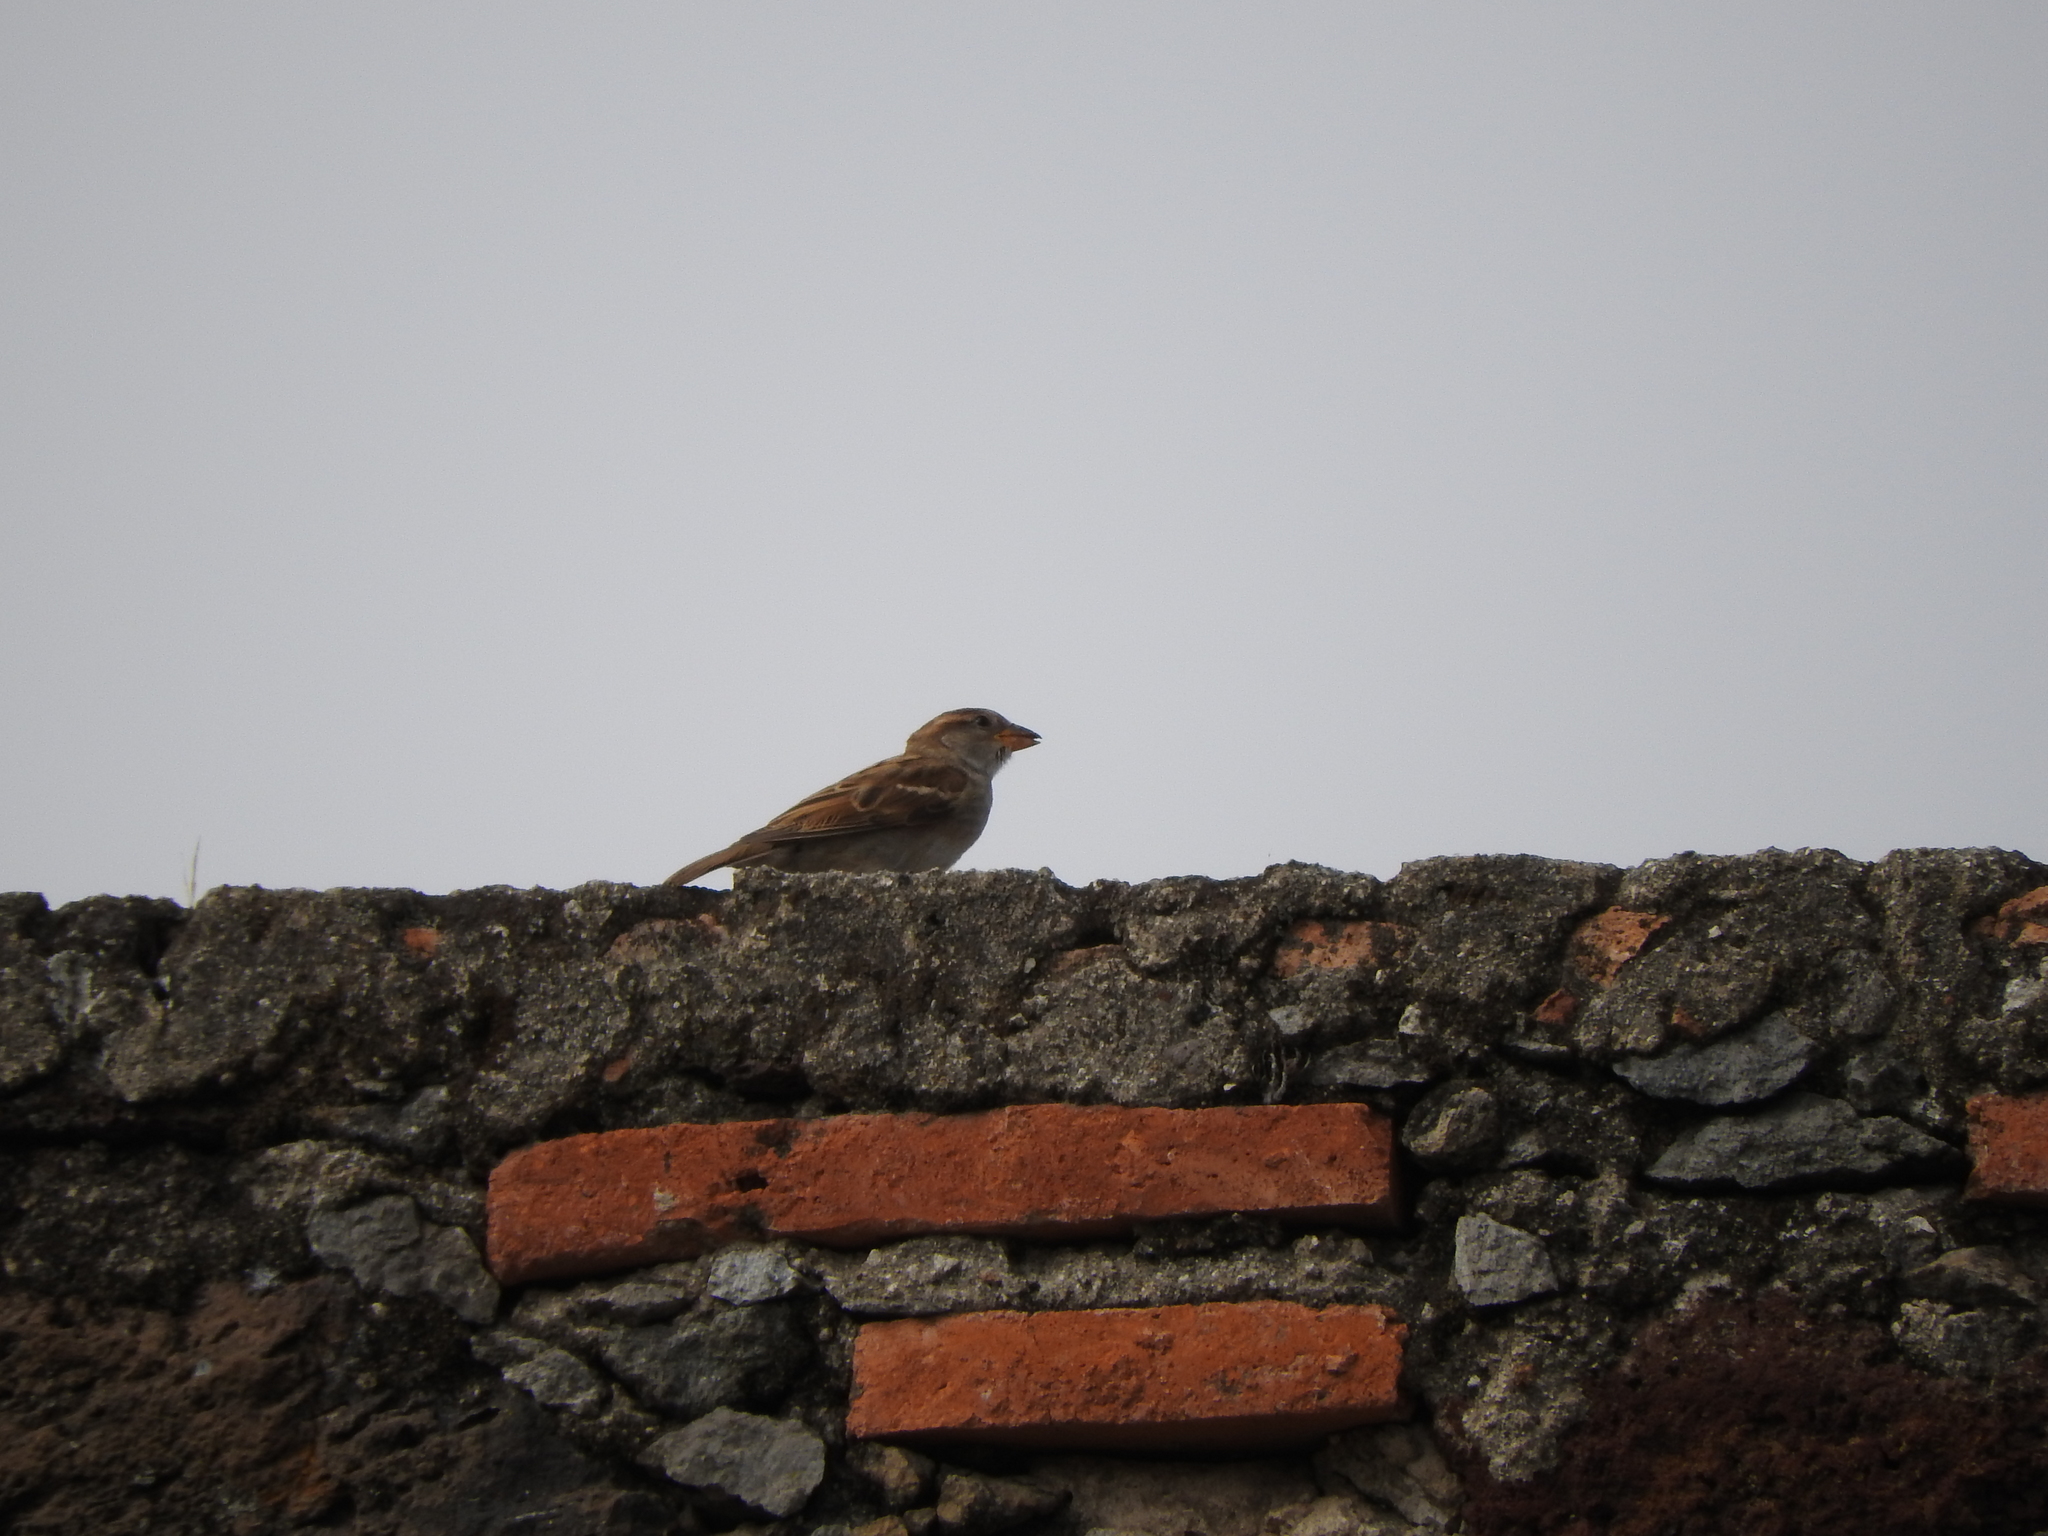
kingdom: Animalia
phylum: Chordata
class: Aves
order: Passeriformes
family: Passeridae
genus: Passer
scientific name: Passer domesticus
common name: House sparrow
